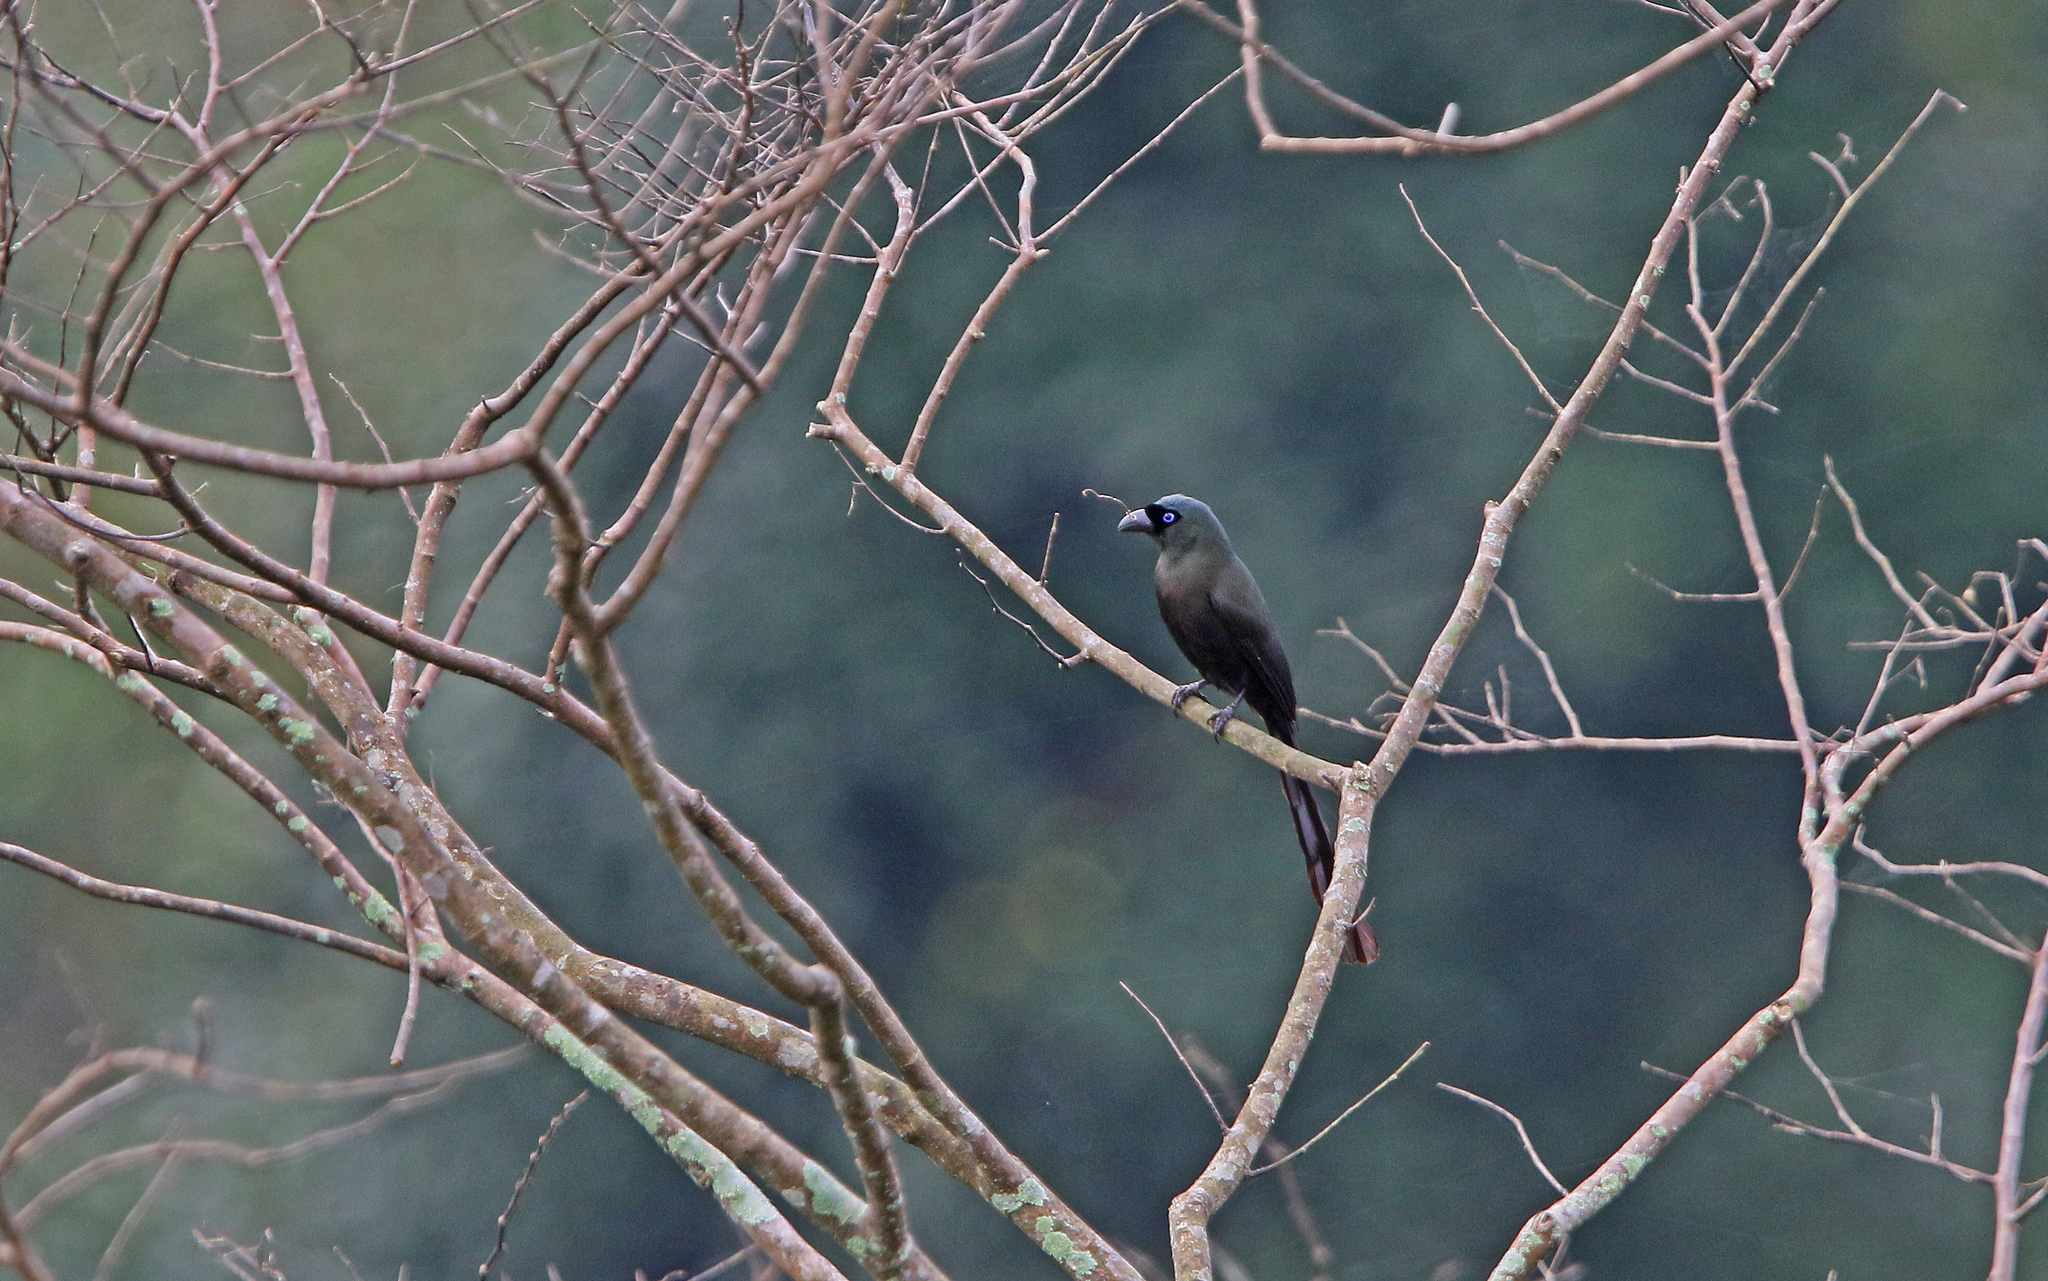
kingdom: Animalia
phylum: Chordata
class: Aves
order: Passeriformes
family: Corvidae
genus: Crypsirina
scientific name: Crypsirina temia
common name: Racket-tailed treepie
